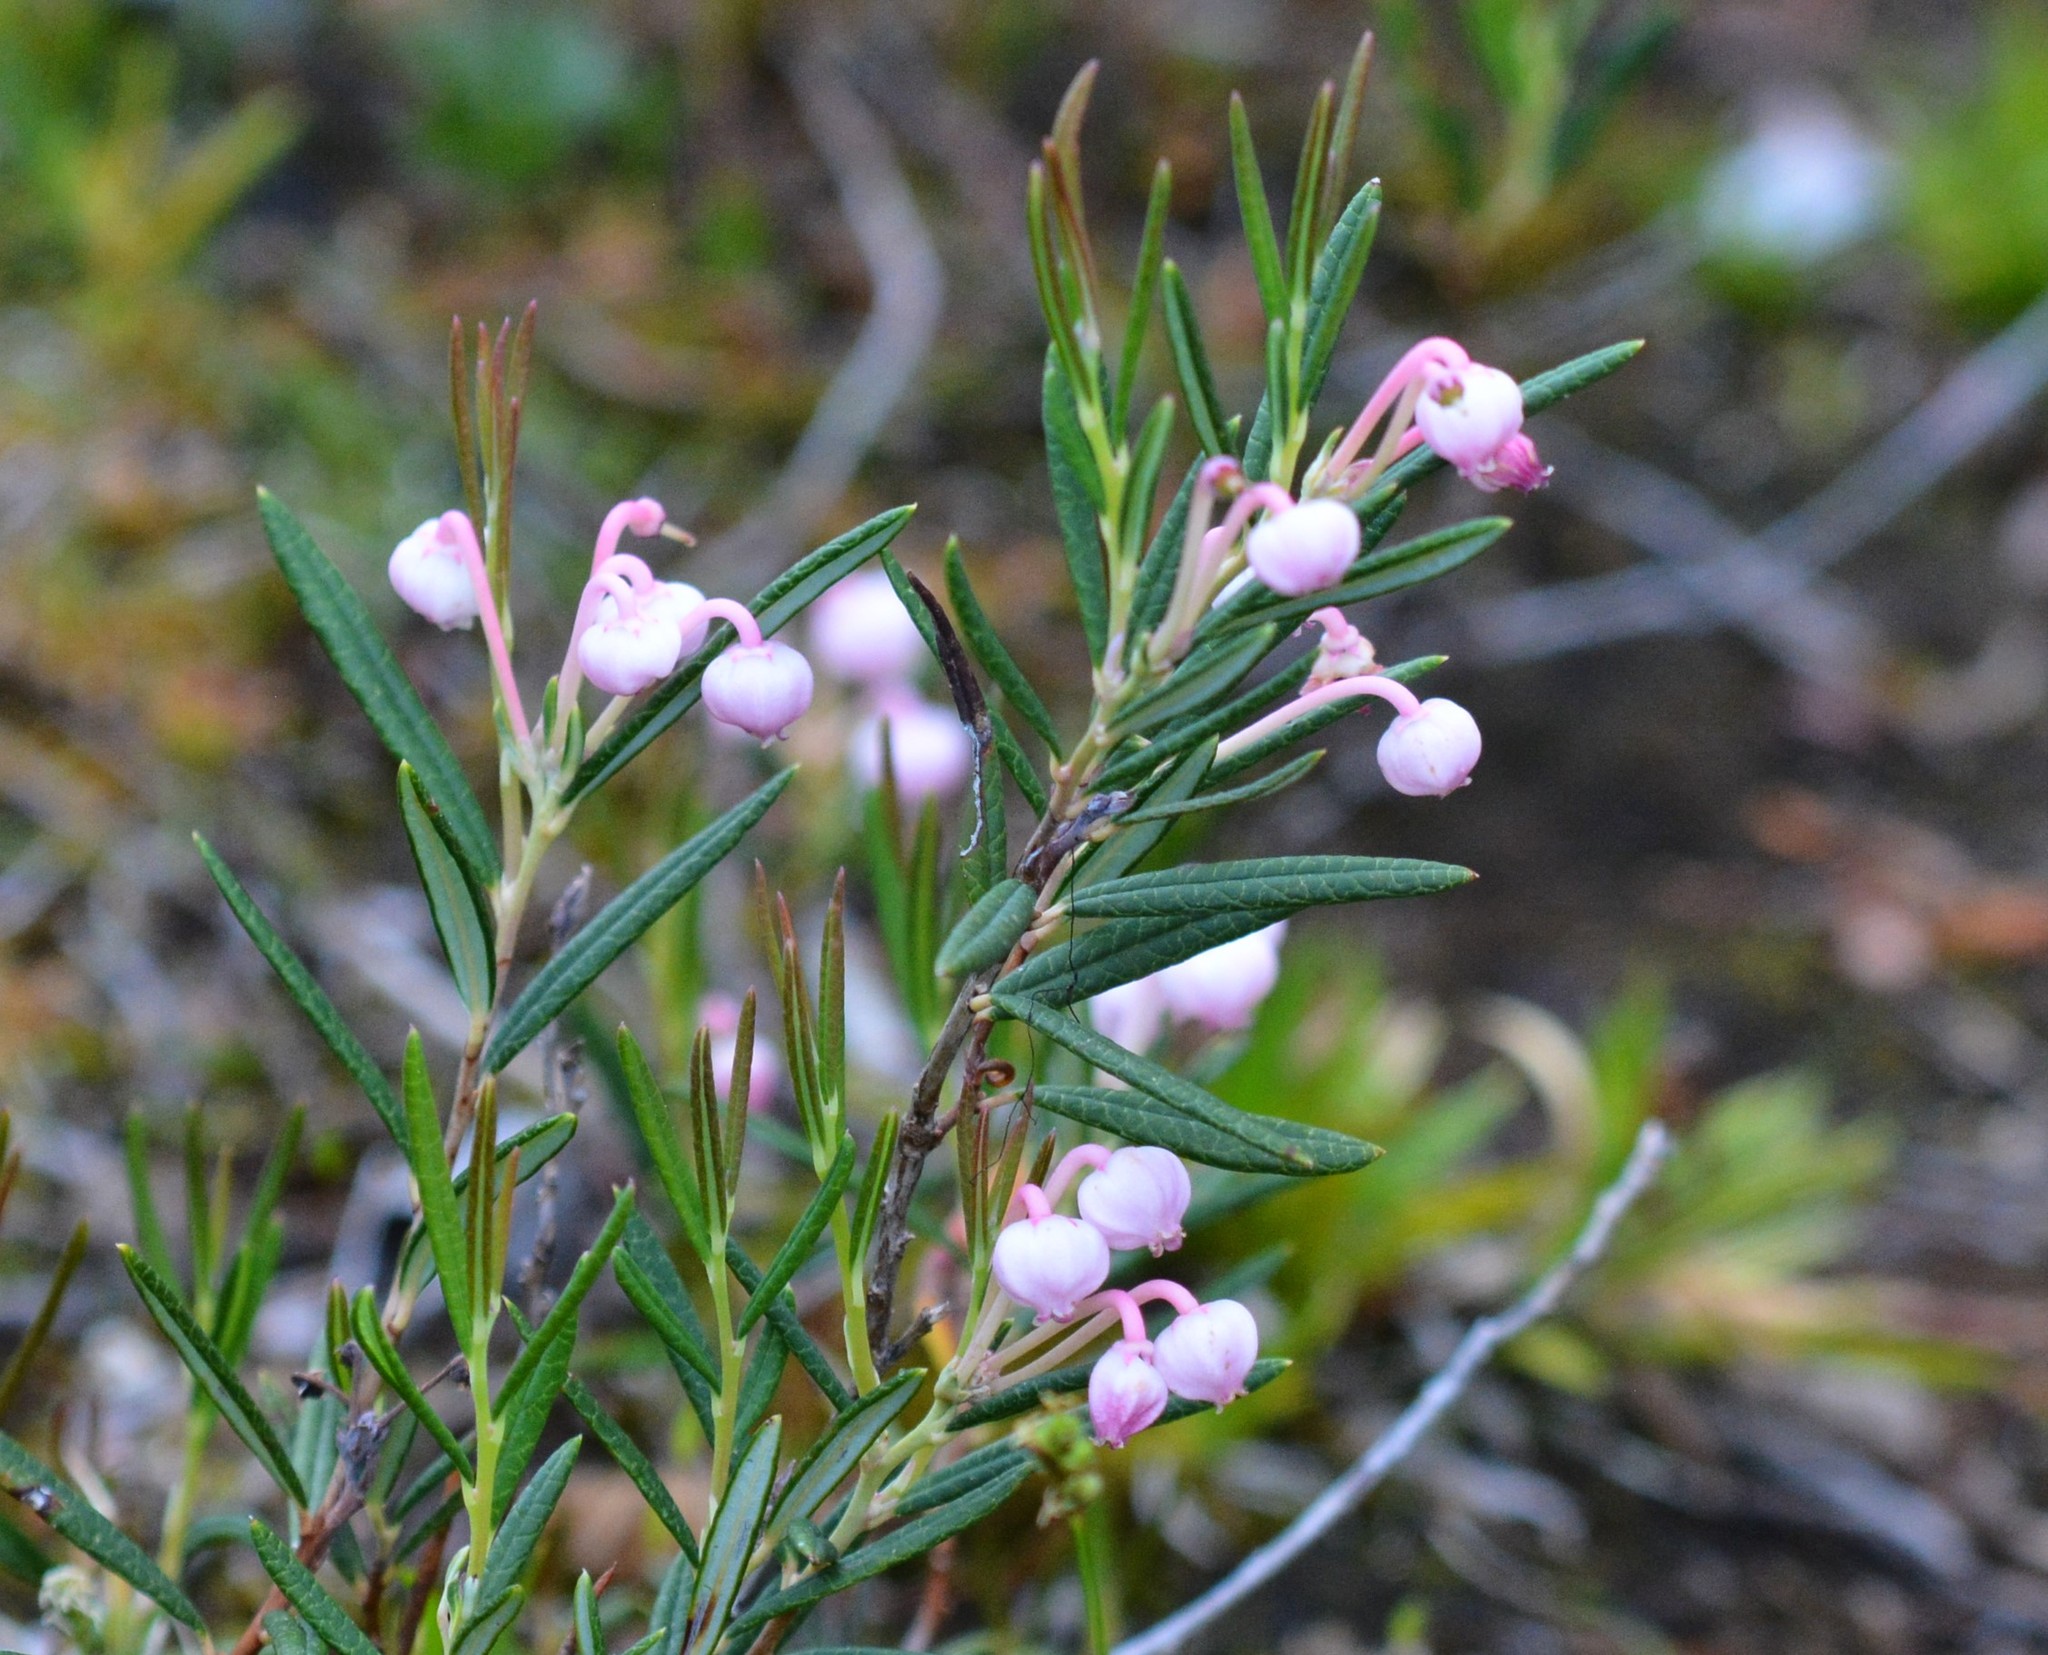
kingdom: Plantae
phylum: Tracheophyta
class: Magnoliopsida
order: Ericales
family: Ericaceae
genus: Andromeda
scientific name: Andromeda polifolia
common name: Bog-rosemary
